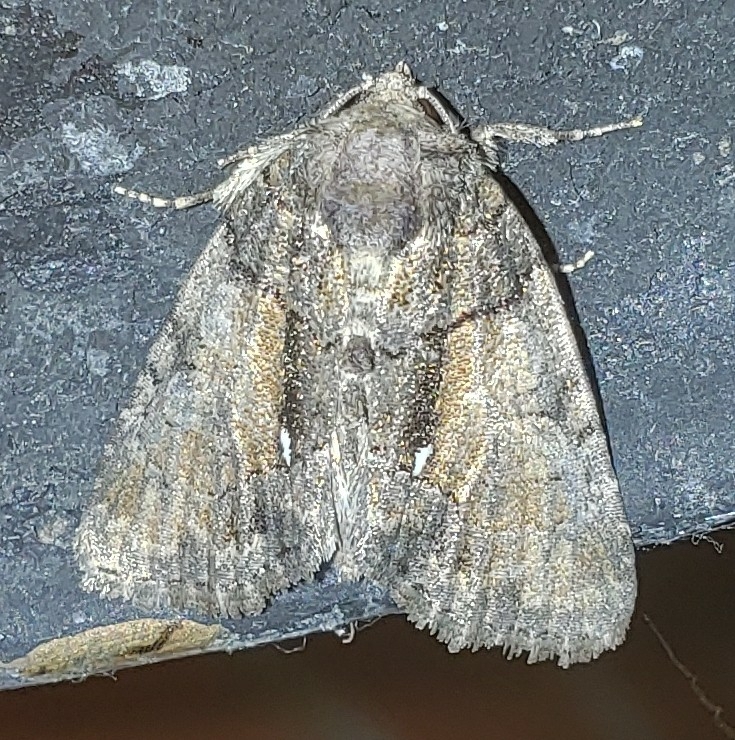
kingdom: Animalia
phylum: Arthropoda
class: Insecta
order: Lepidoptera
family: Noctuidae
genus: Chytonix
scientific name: Chytonix palliatricula
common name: Cloaked marvel
